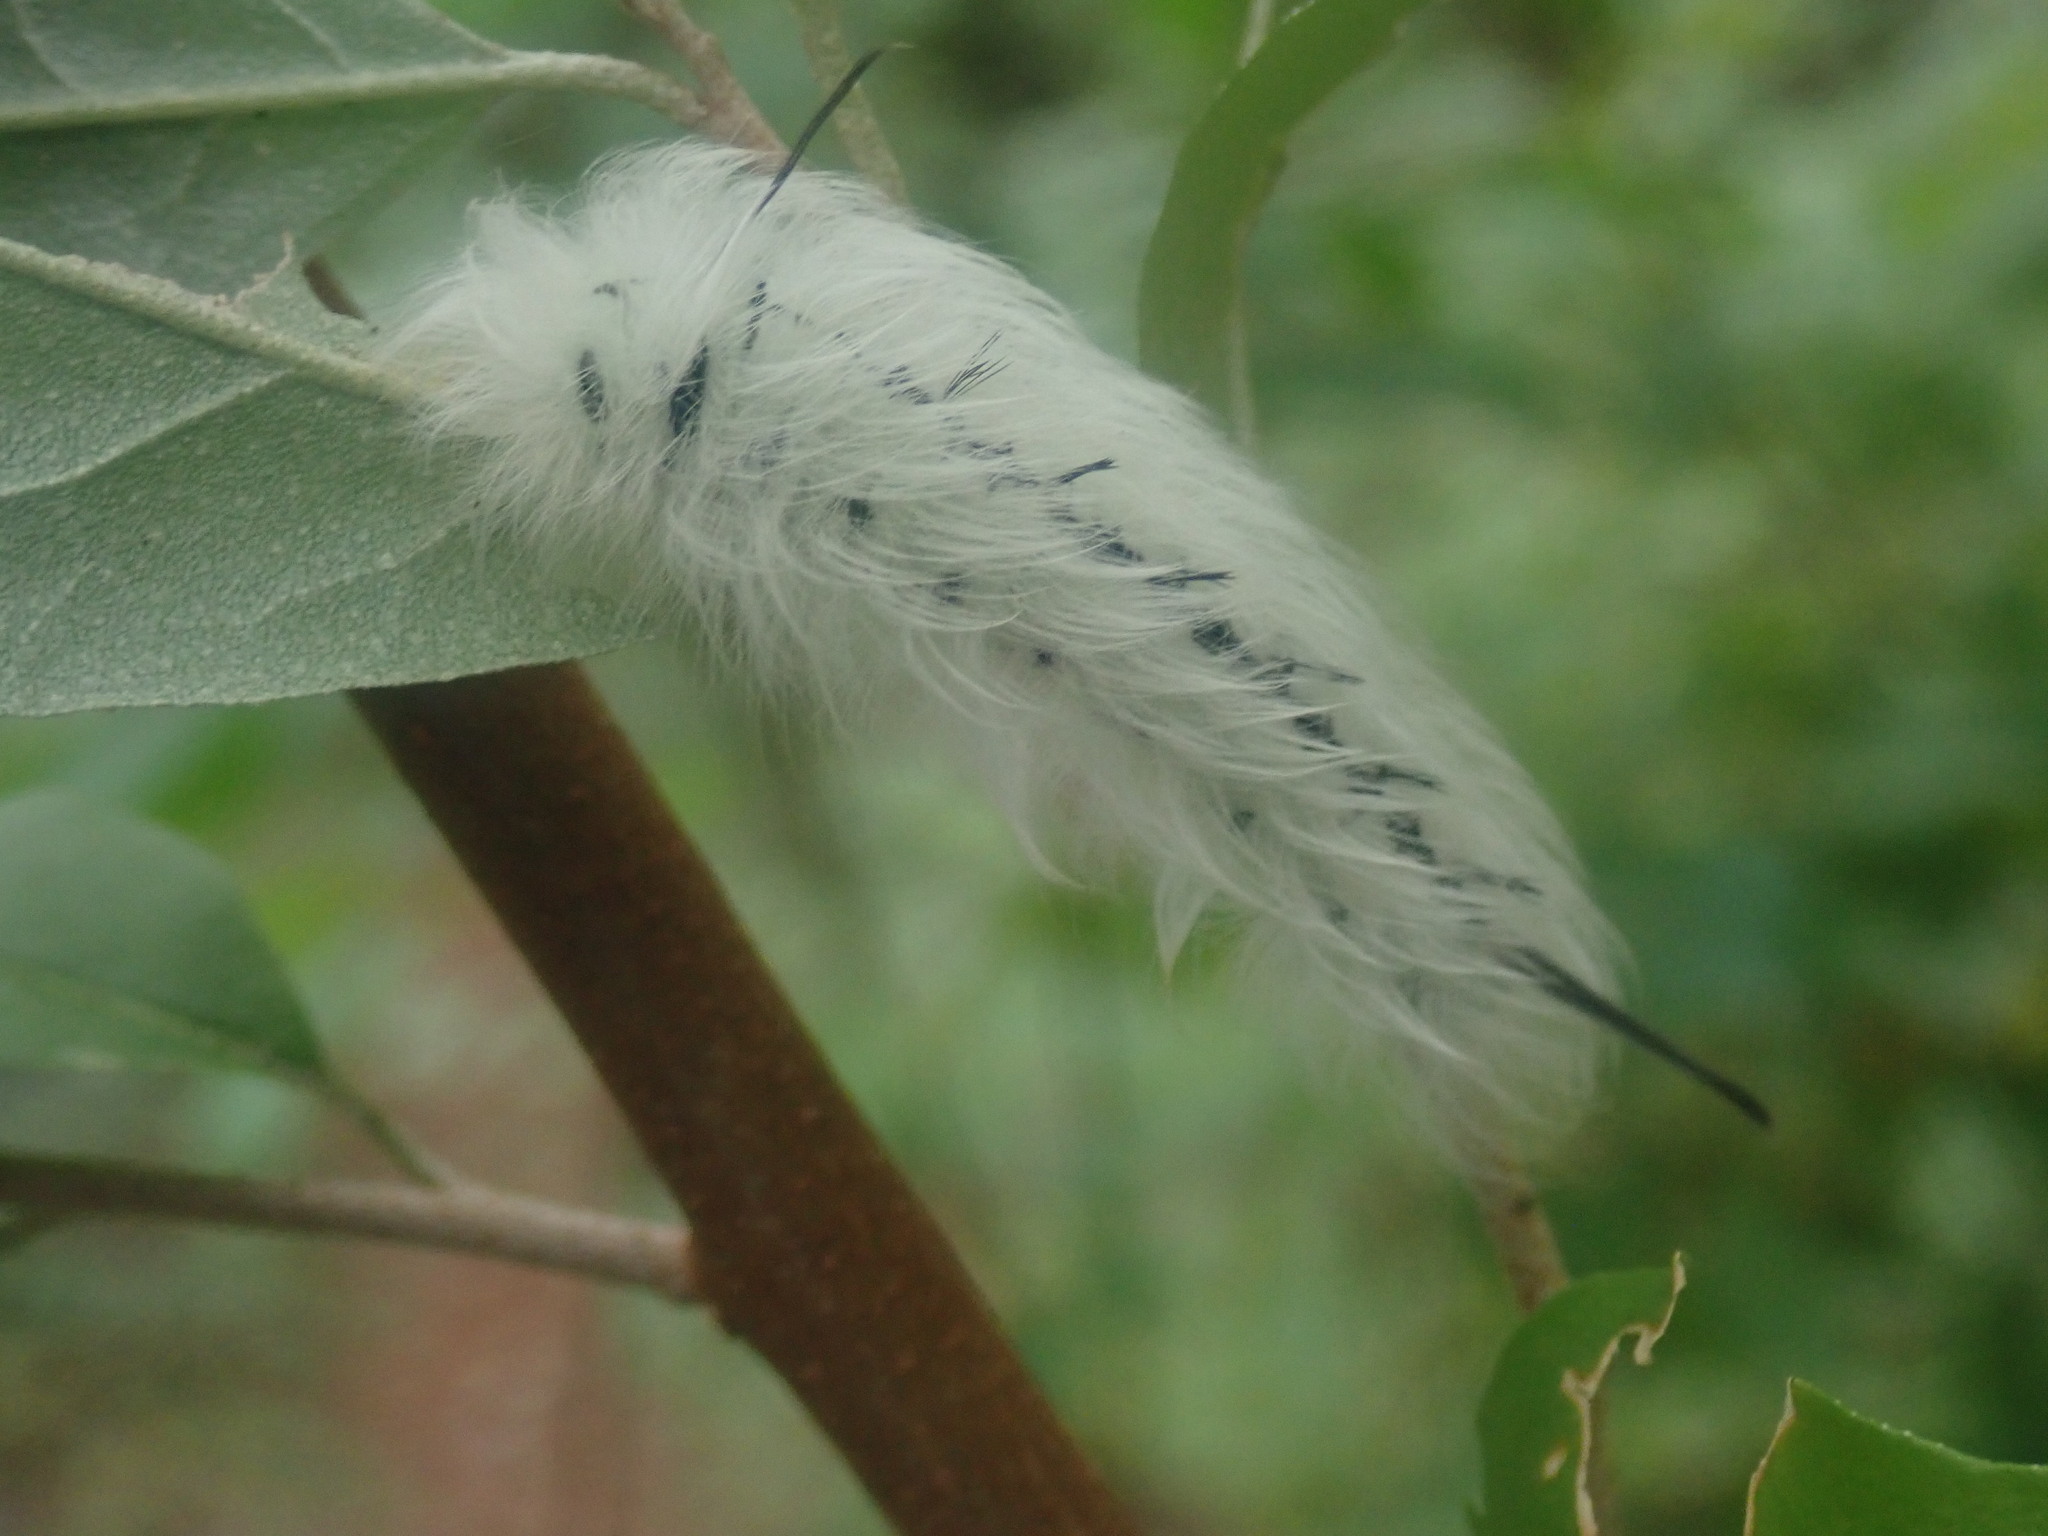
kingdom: Animalia
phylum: Arthropoda
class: Insecta
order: Lepidoptera
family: Apatelodidae
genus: Hygrochroa
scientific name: Hygrochroa Apatelodes torrefacta
